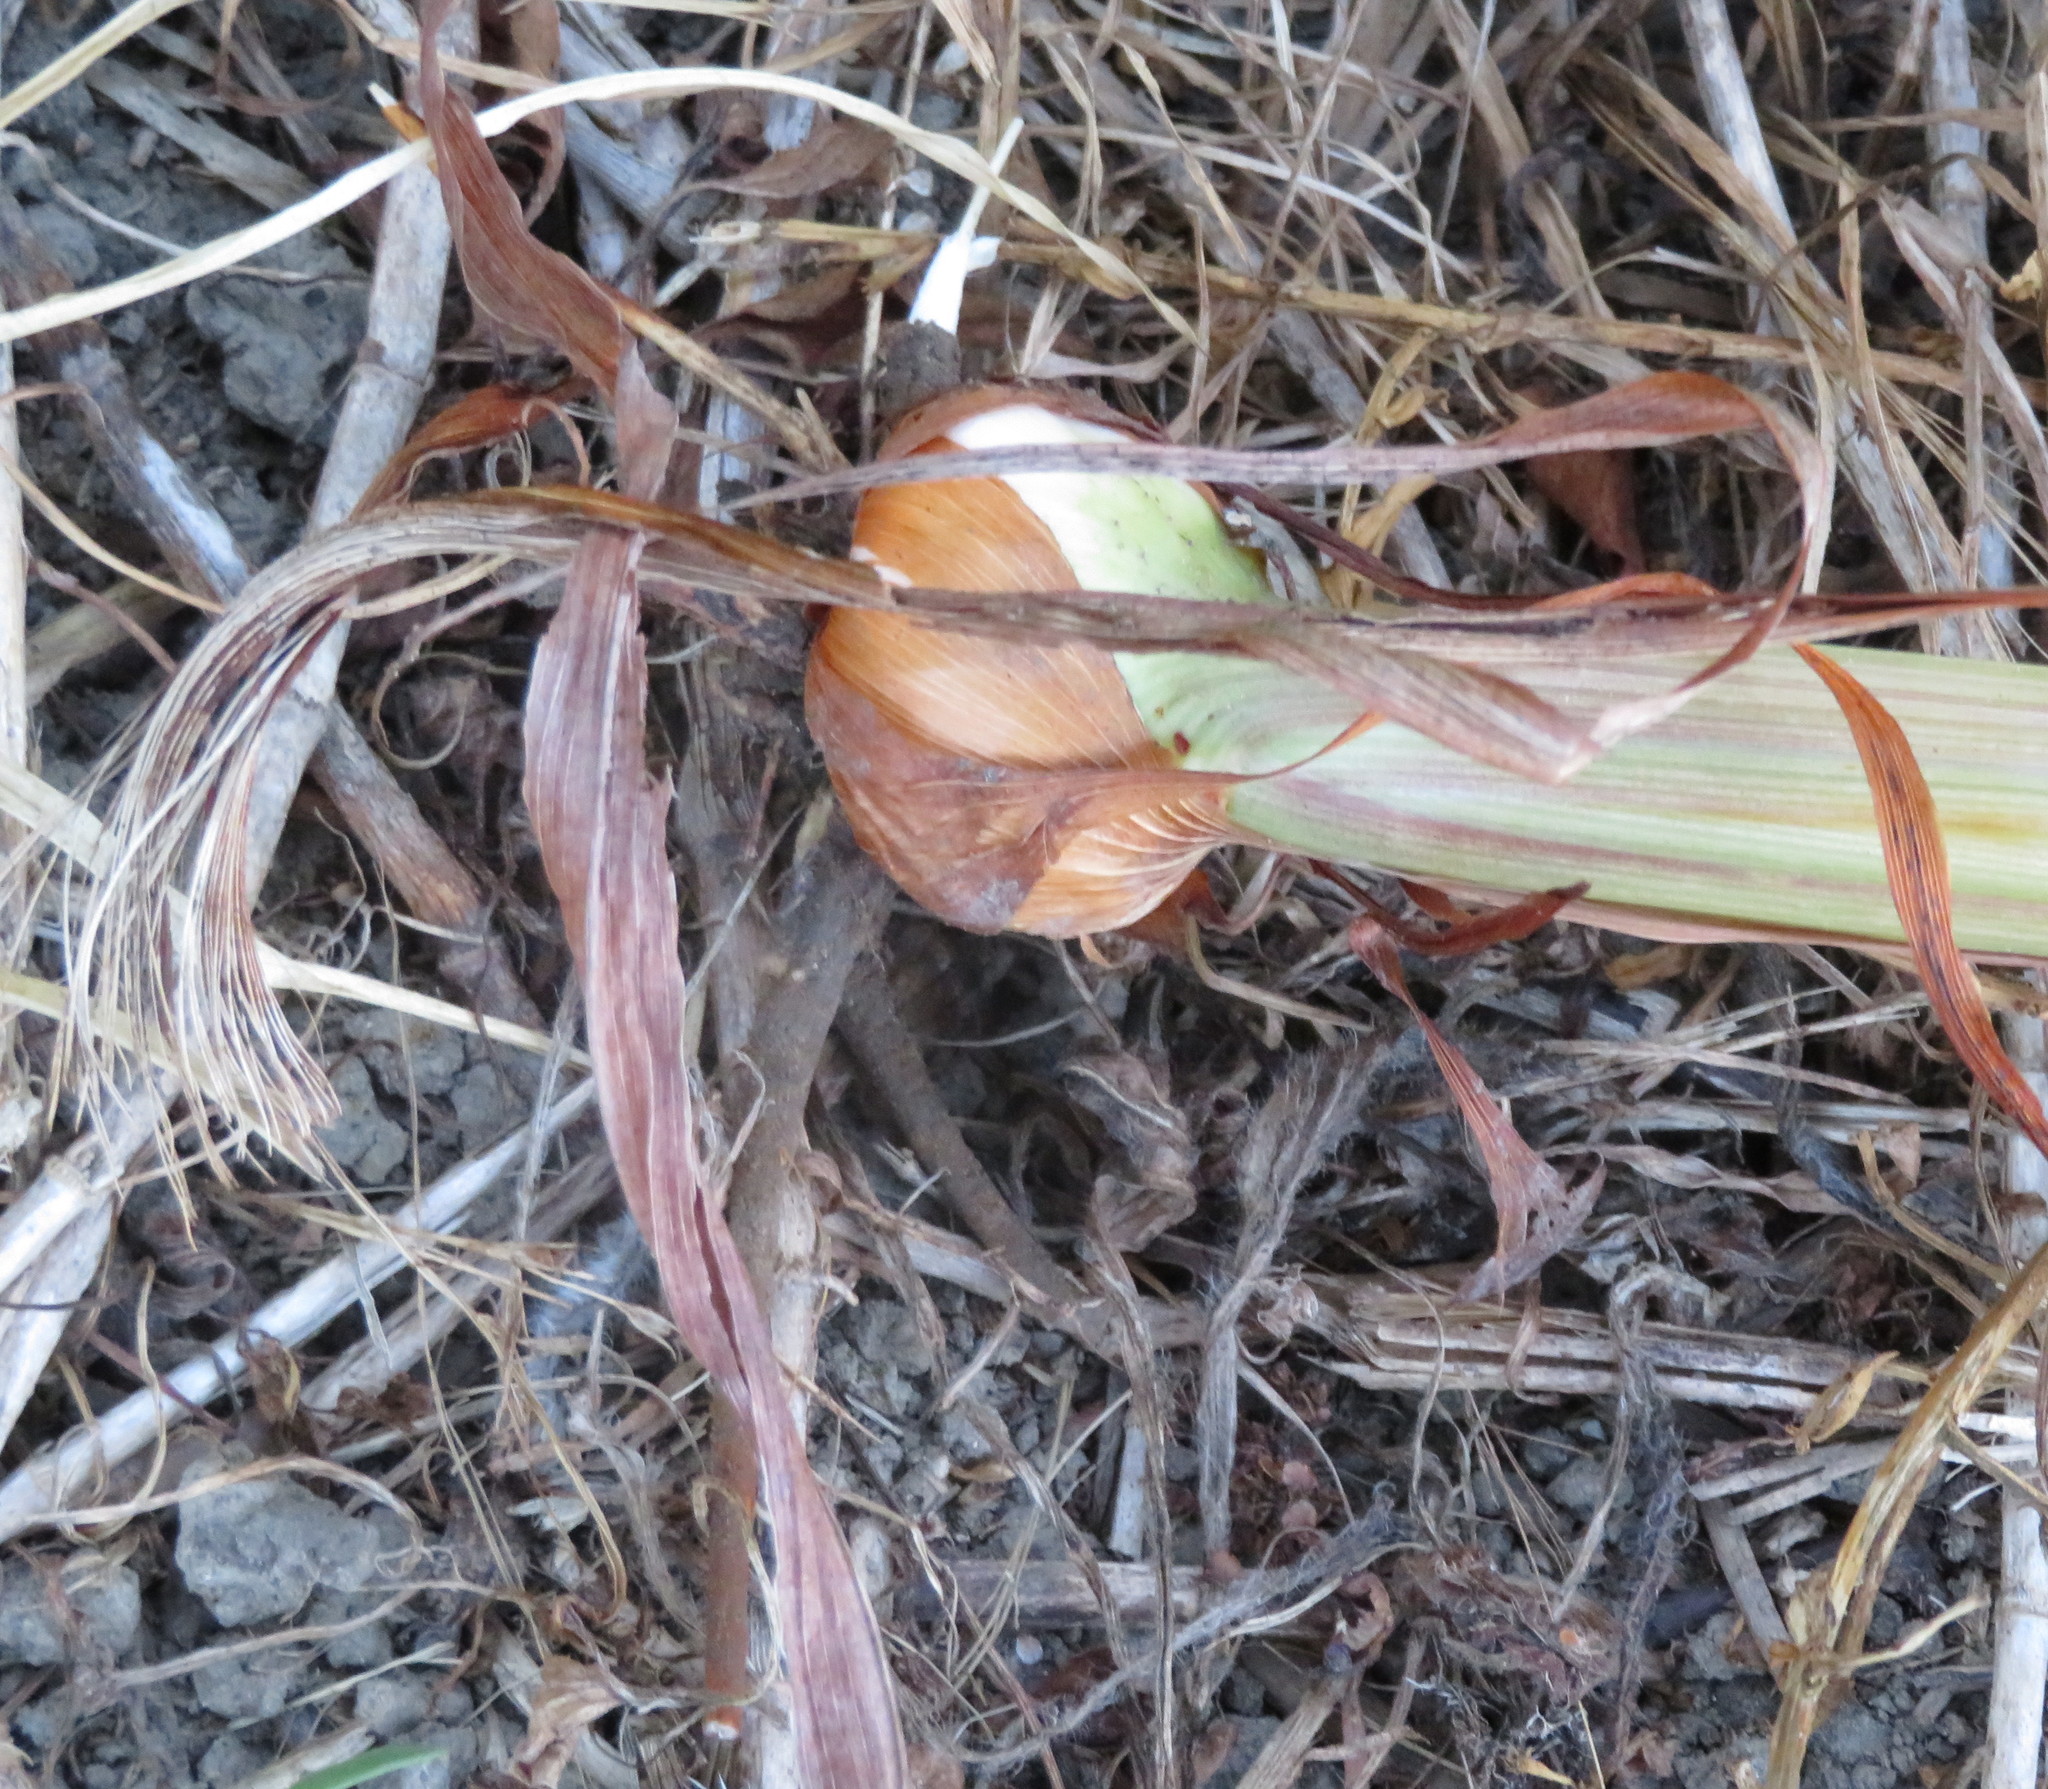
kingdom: Plantae
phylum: Tracheophyta
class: Liliopsida
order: Asparagales
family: Iridaceae
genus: Crocosmia
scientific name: Crocosmia crocosmiiflora
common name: Montbretia
